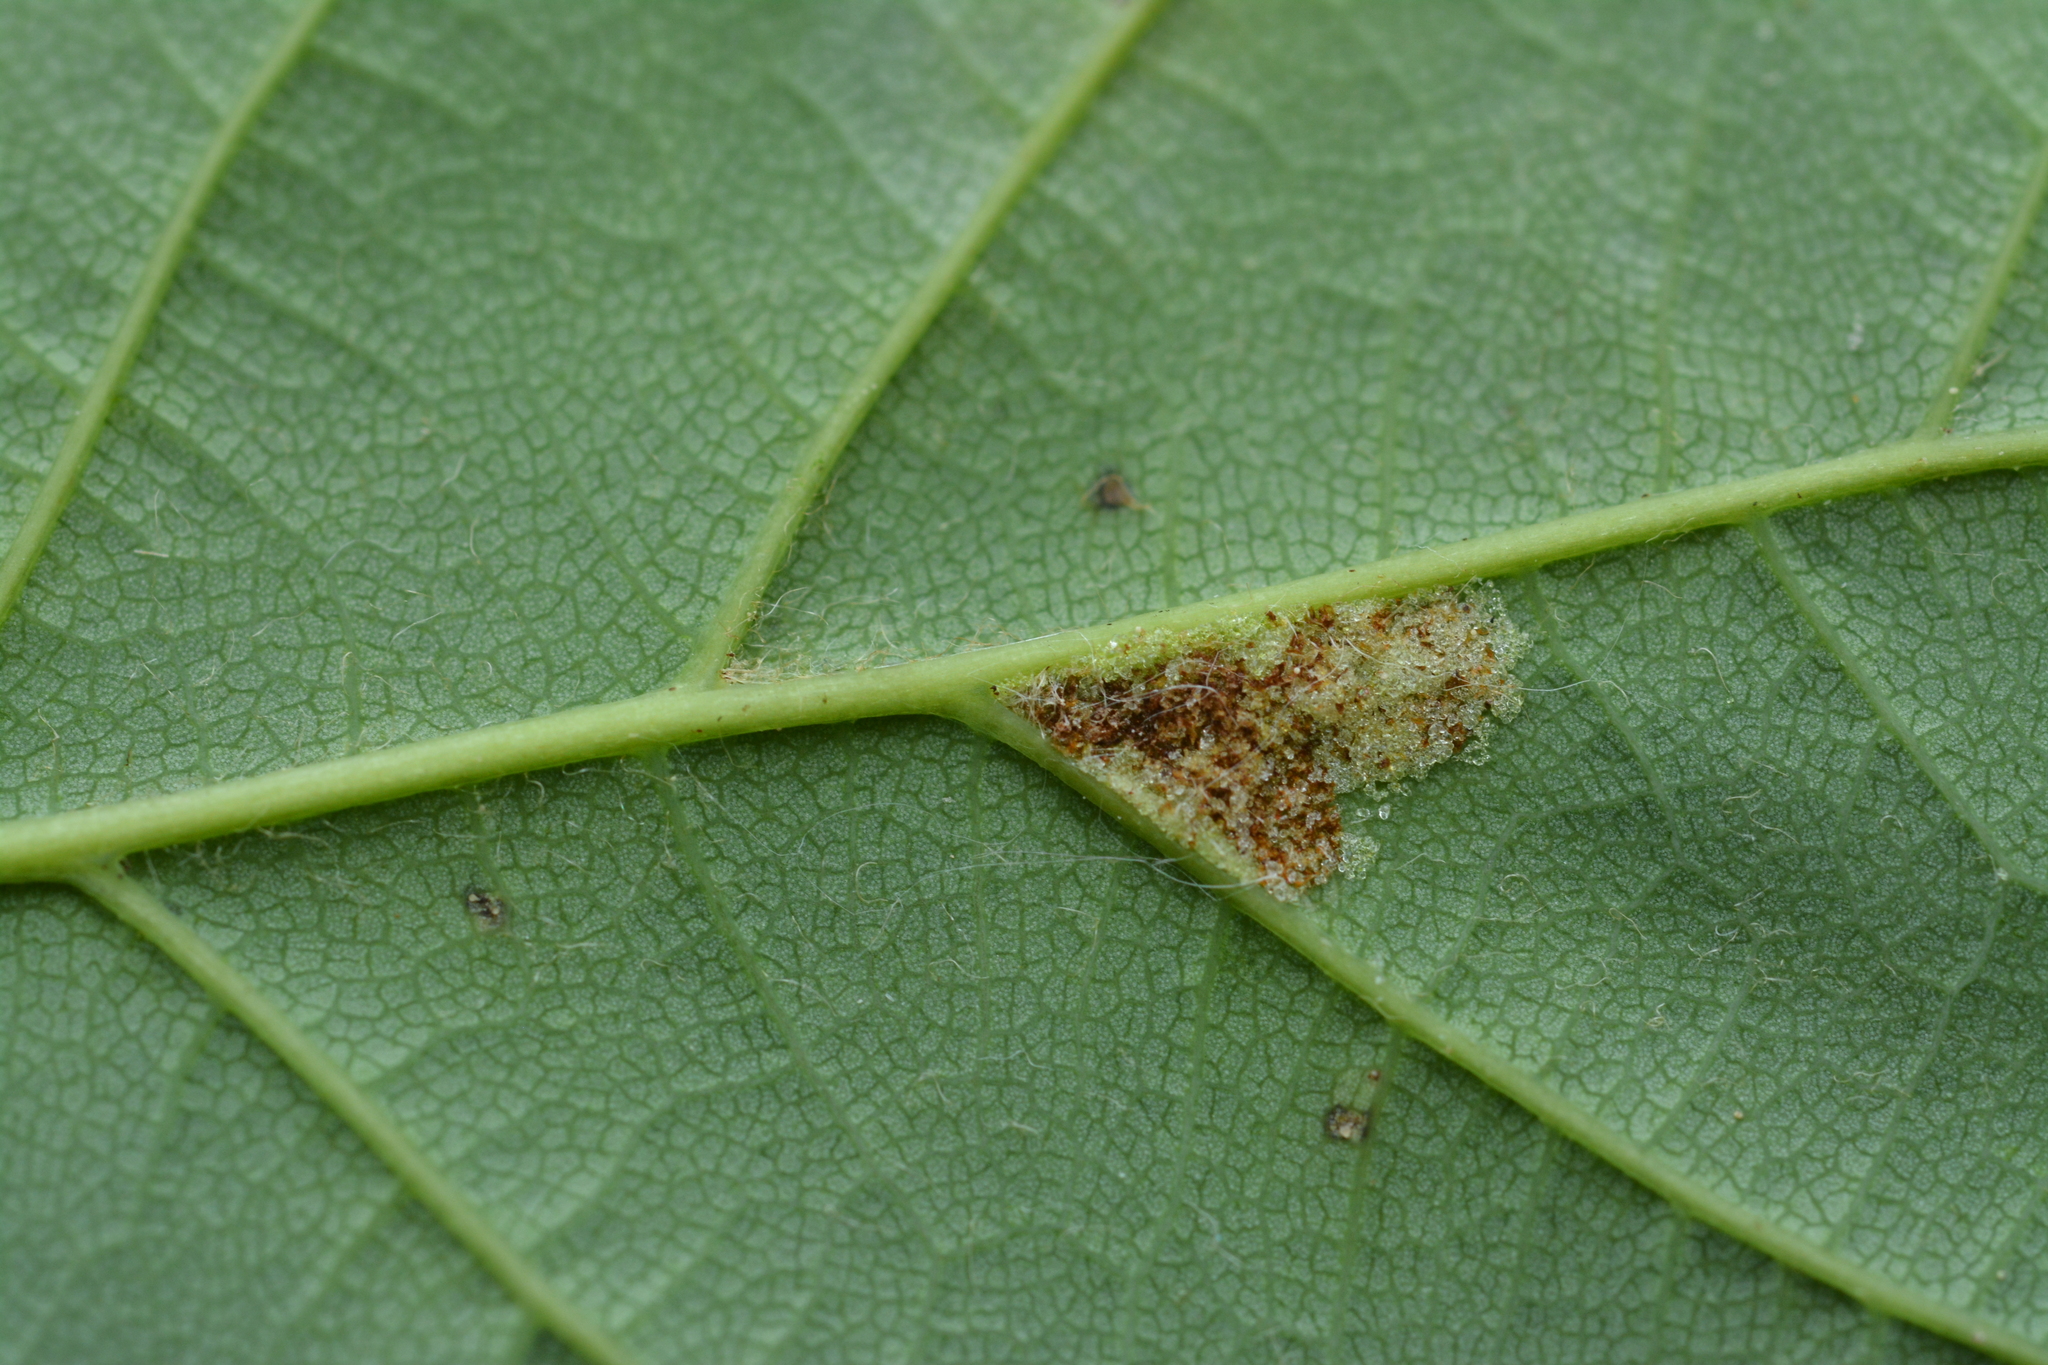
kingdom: Animalia
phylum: Arthropoda
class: Arachnida
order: Trombidiformes
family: Eriophyidae
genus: Aceria
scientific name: Aceria pseudoplatani
